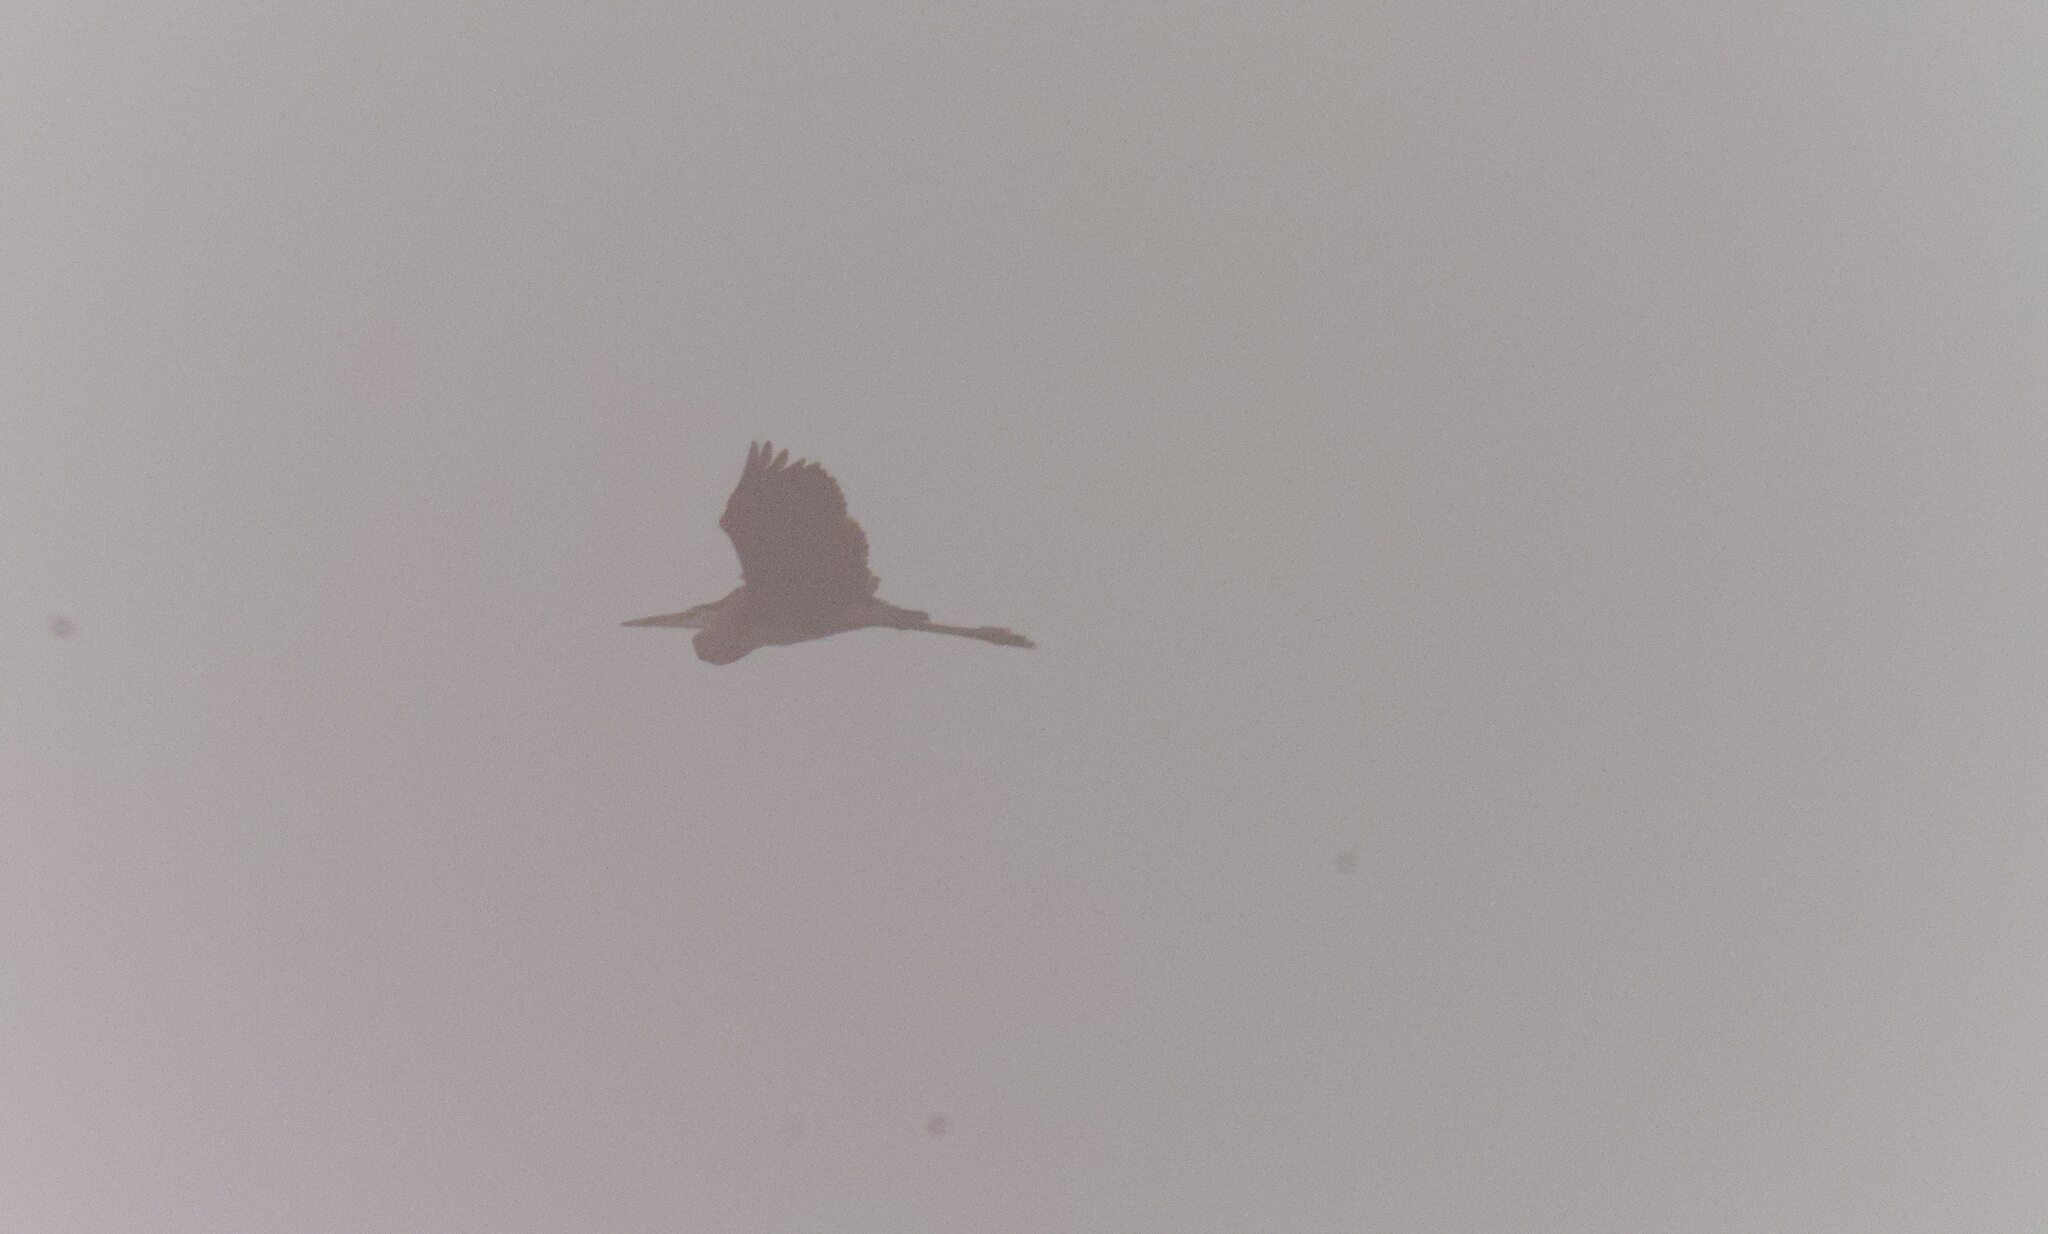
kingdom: Animalia
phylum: Chordata
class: Aves
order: Pelecaniformes
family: Ardeidae
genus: Ardea
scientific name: Ardea herodias
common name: Great blue heron
